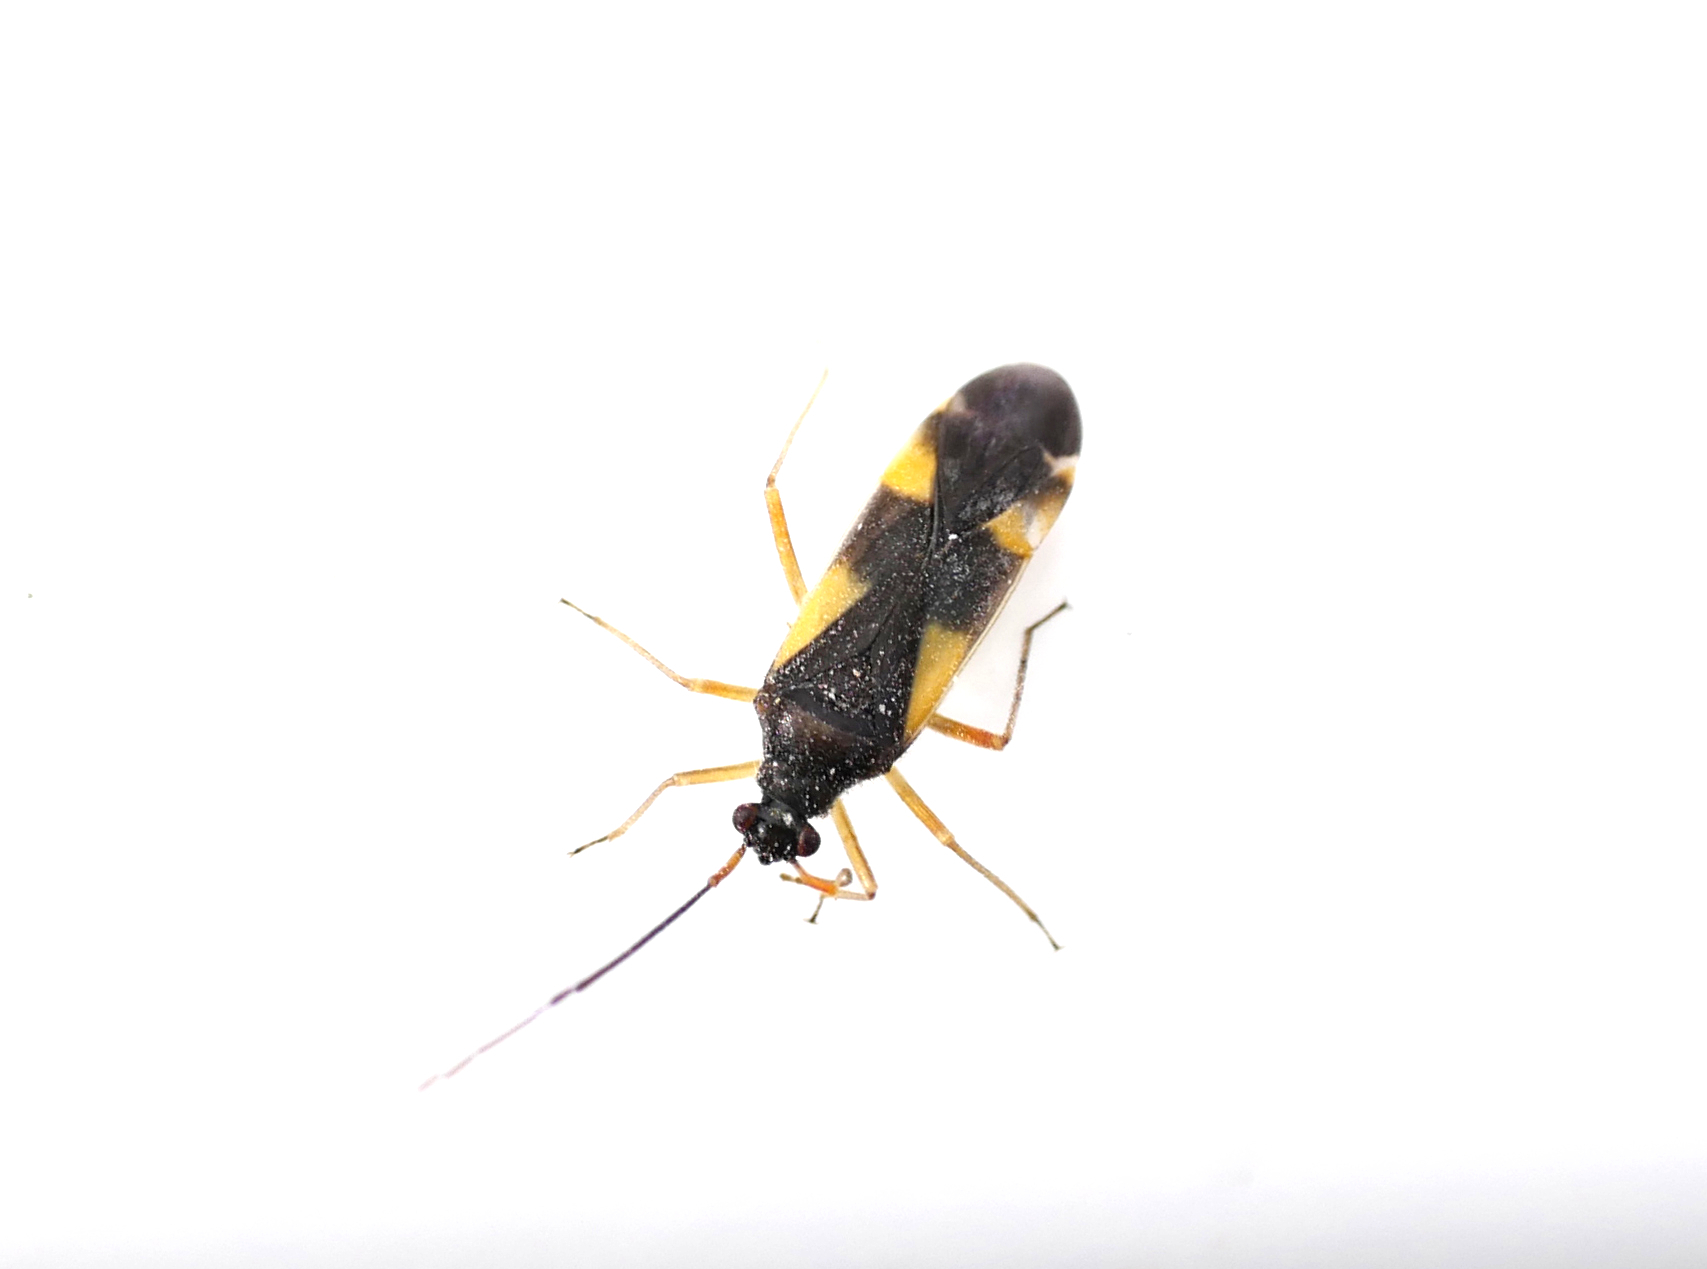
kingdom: Animalia
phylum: Arthropoda
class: Insecta
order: Hemiptera
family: Miridae
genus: Dryophilocoris
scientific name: Dryophilocoris flavoquadrimaculatus
